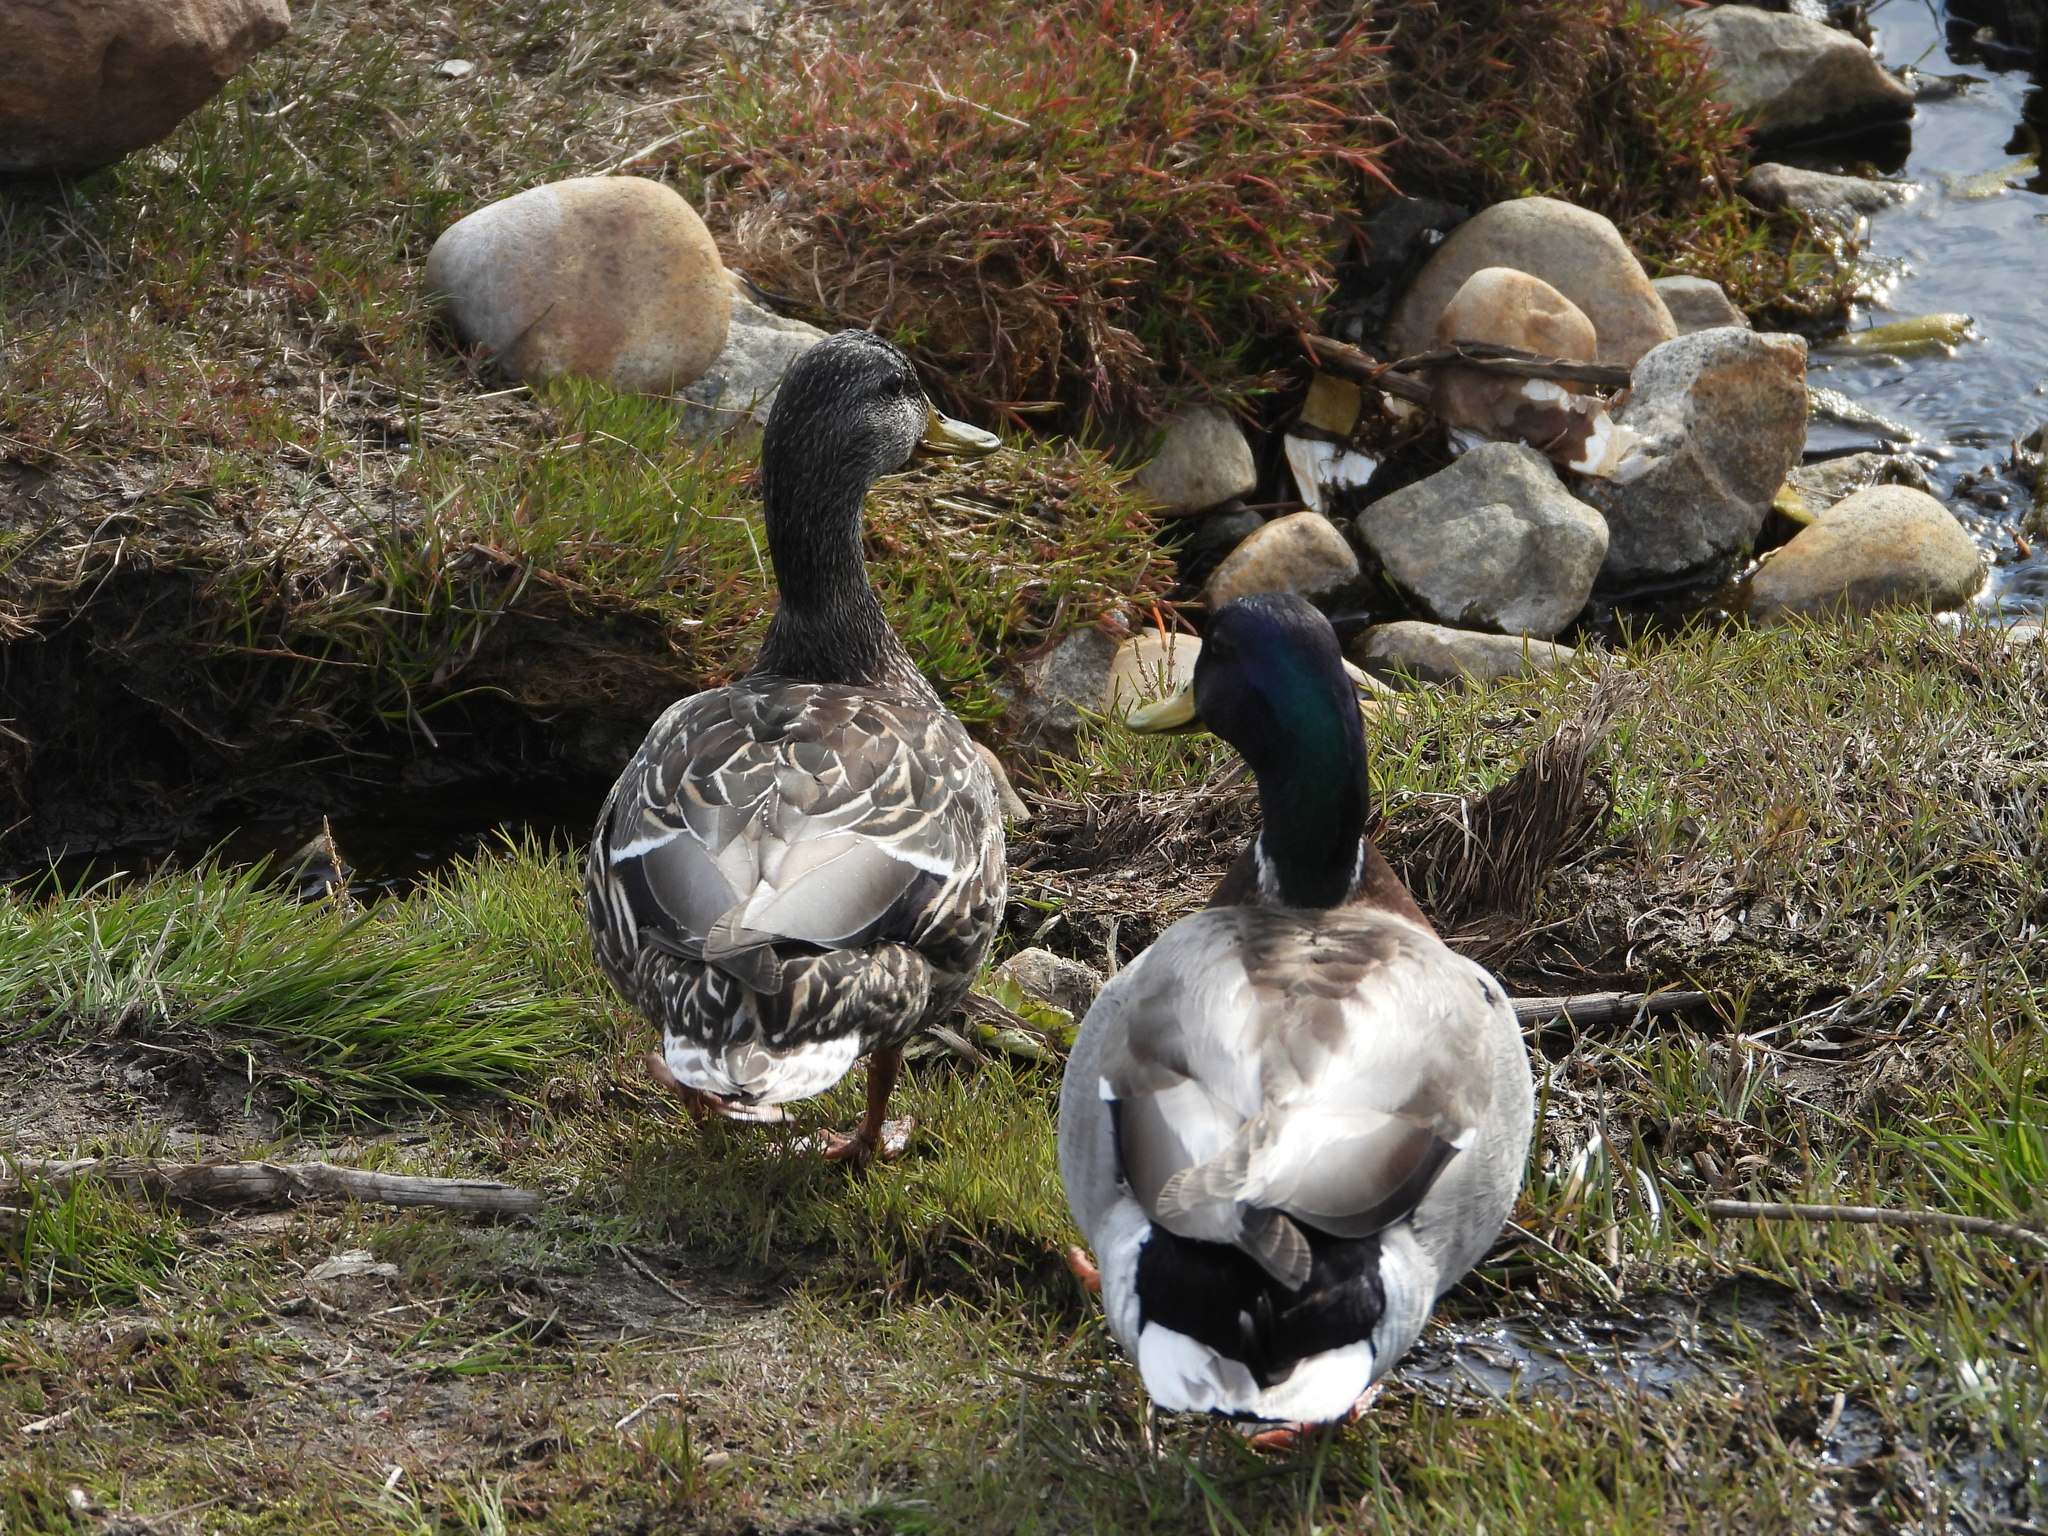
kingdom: Animalia
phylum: Chordata
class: Aves
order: Anseriformes
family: Anatidae
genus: Anas
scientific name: Anas platyrhynchos
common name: Mallard
